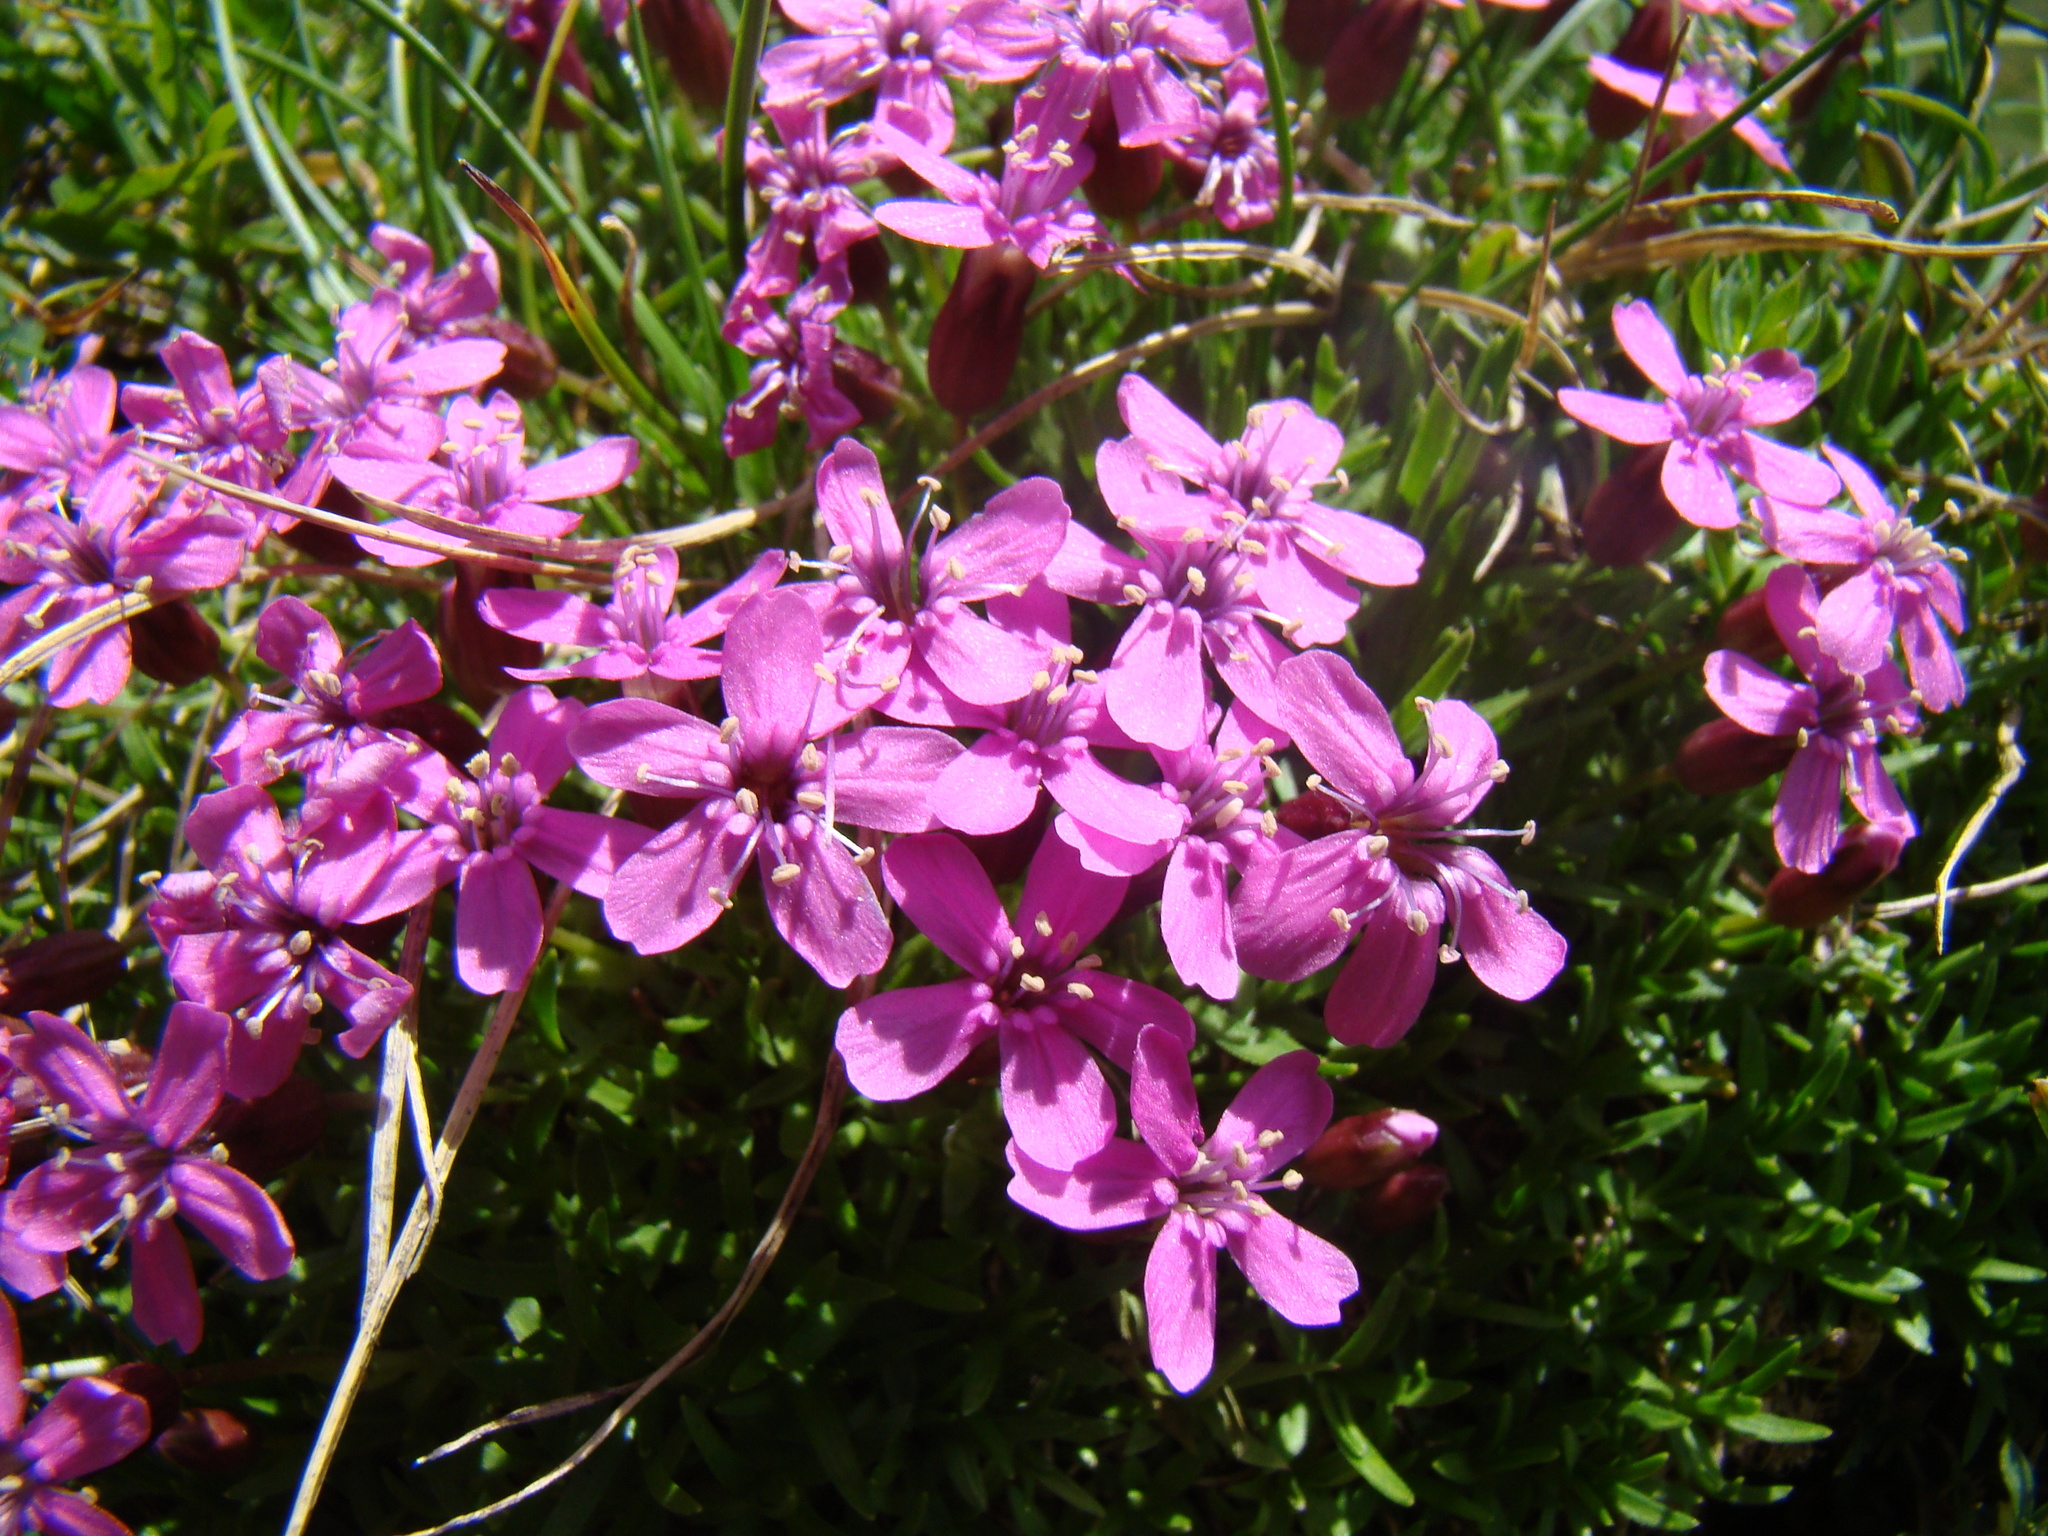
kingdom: Plantae
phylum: Tracheophyta
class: Magnoliopsida
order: Caryophyllales
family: Caryophyllaceae
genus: Silene
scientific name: Silene acaulis
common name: Moss campion
